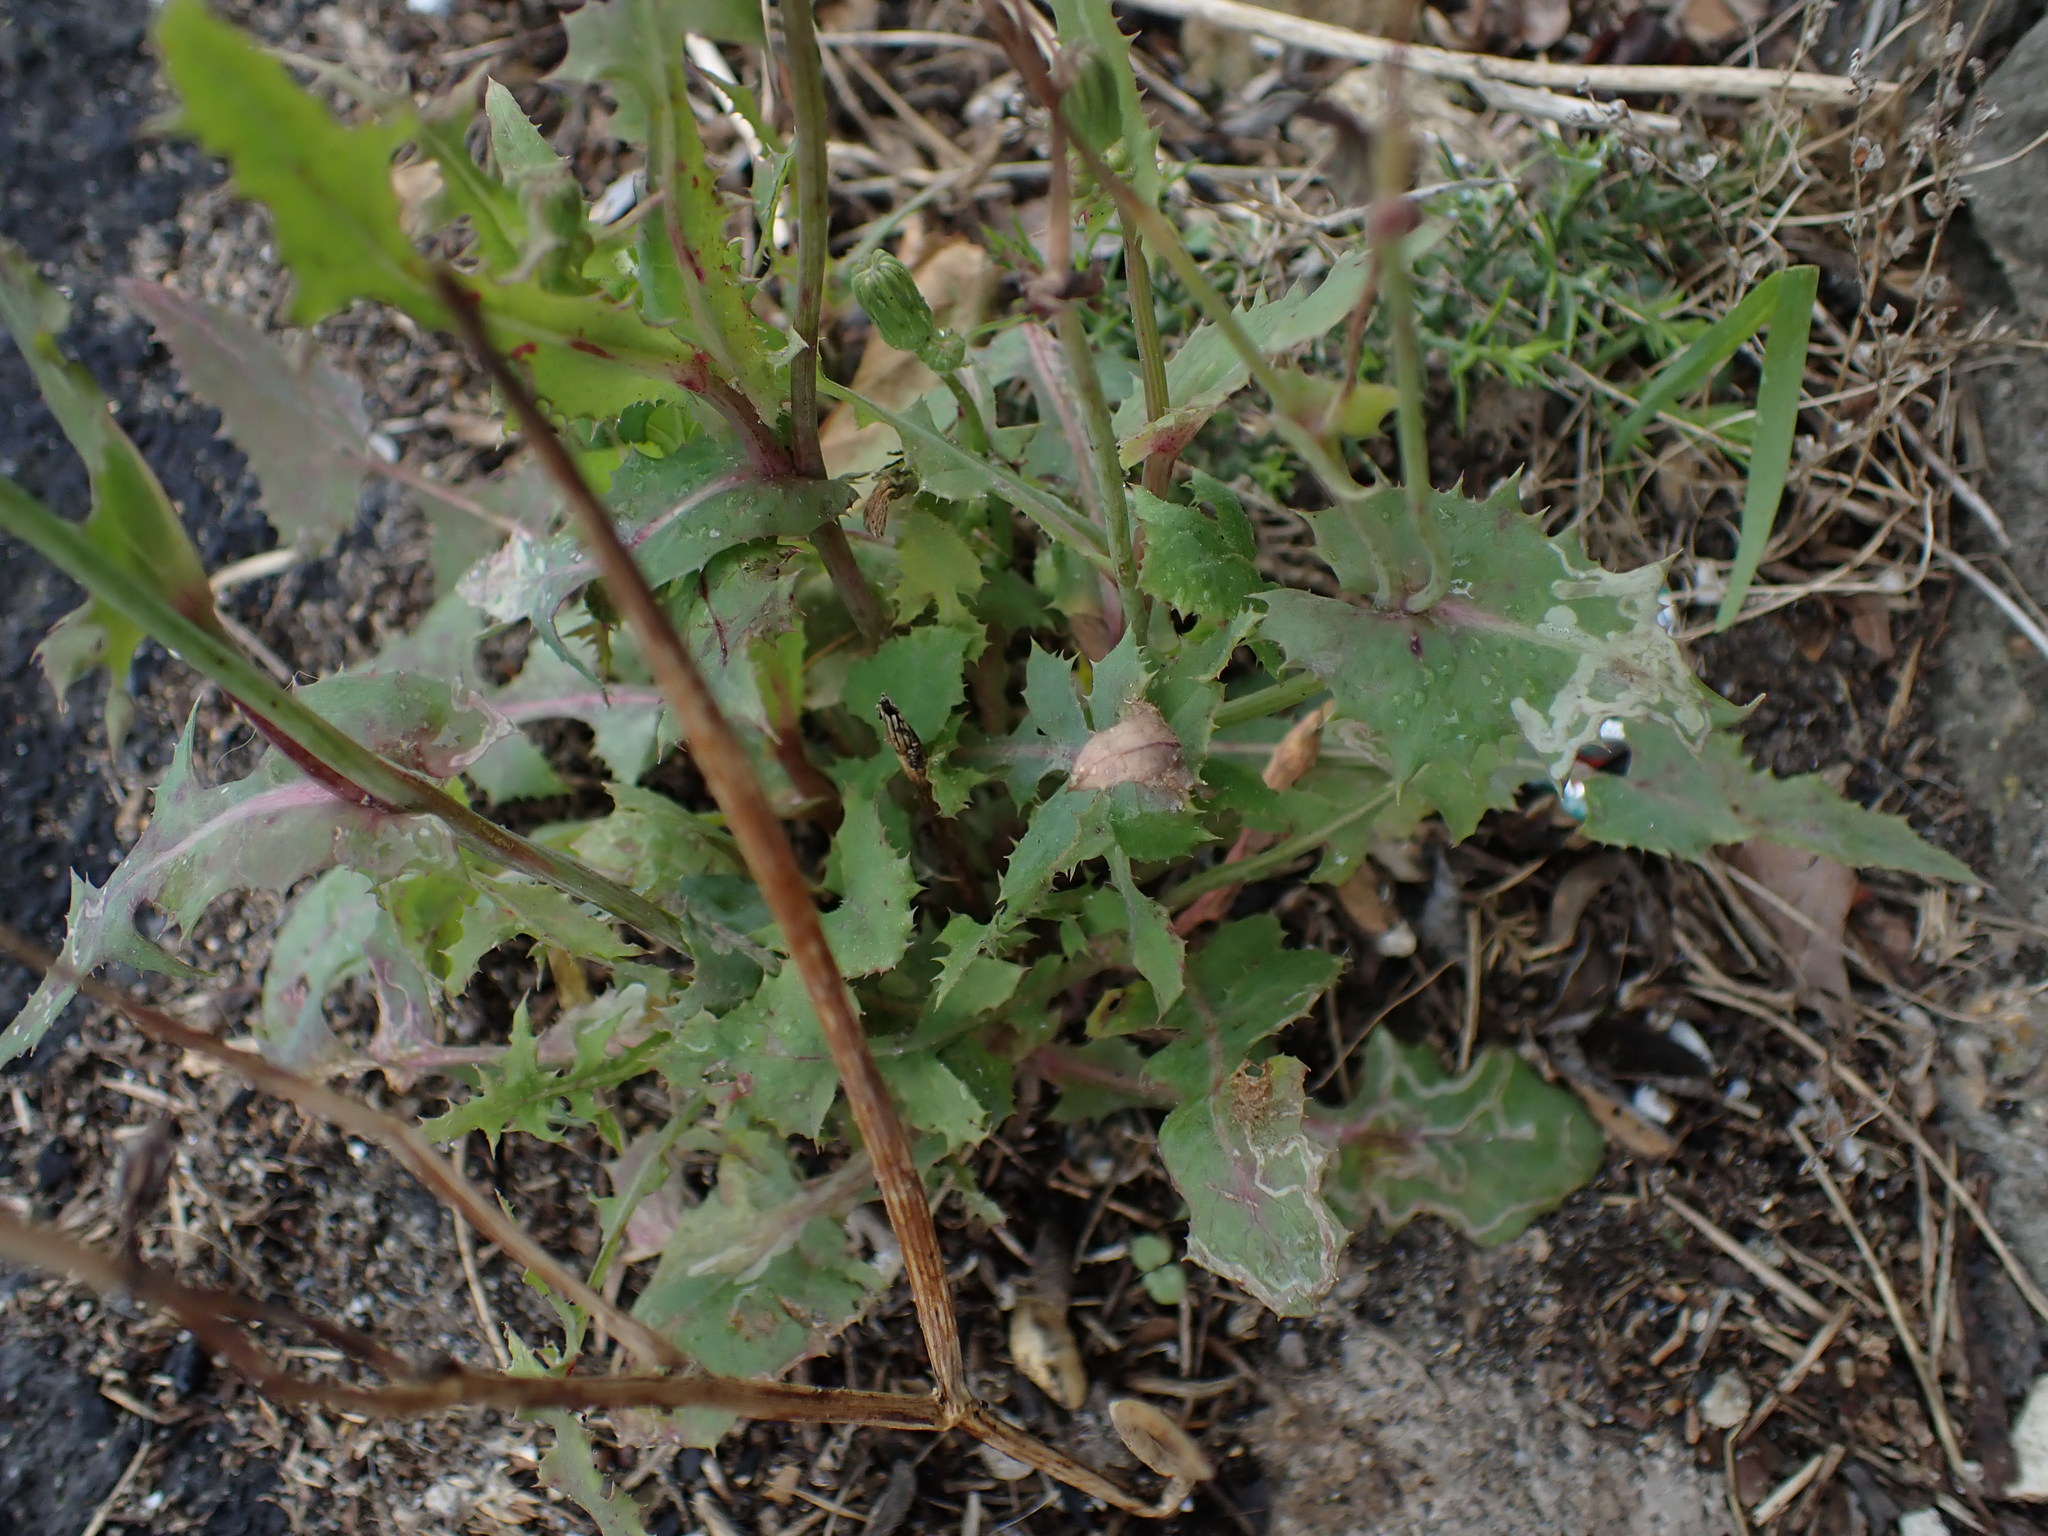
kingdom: Plantae
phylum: Tracheophyta
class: Magnoliopsida
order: Asterales
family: Asteraceae
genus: Sonchus
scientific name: Sonchus oleraceus
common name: Common sowthistle
